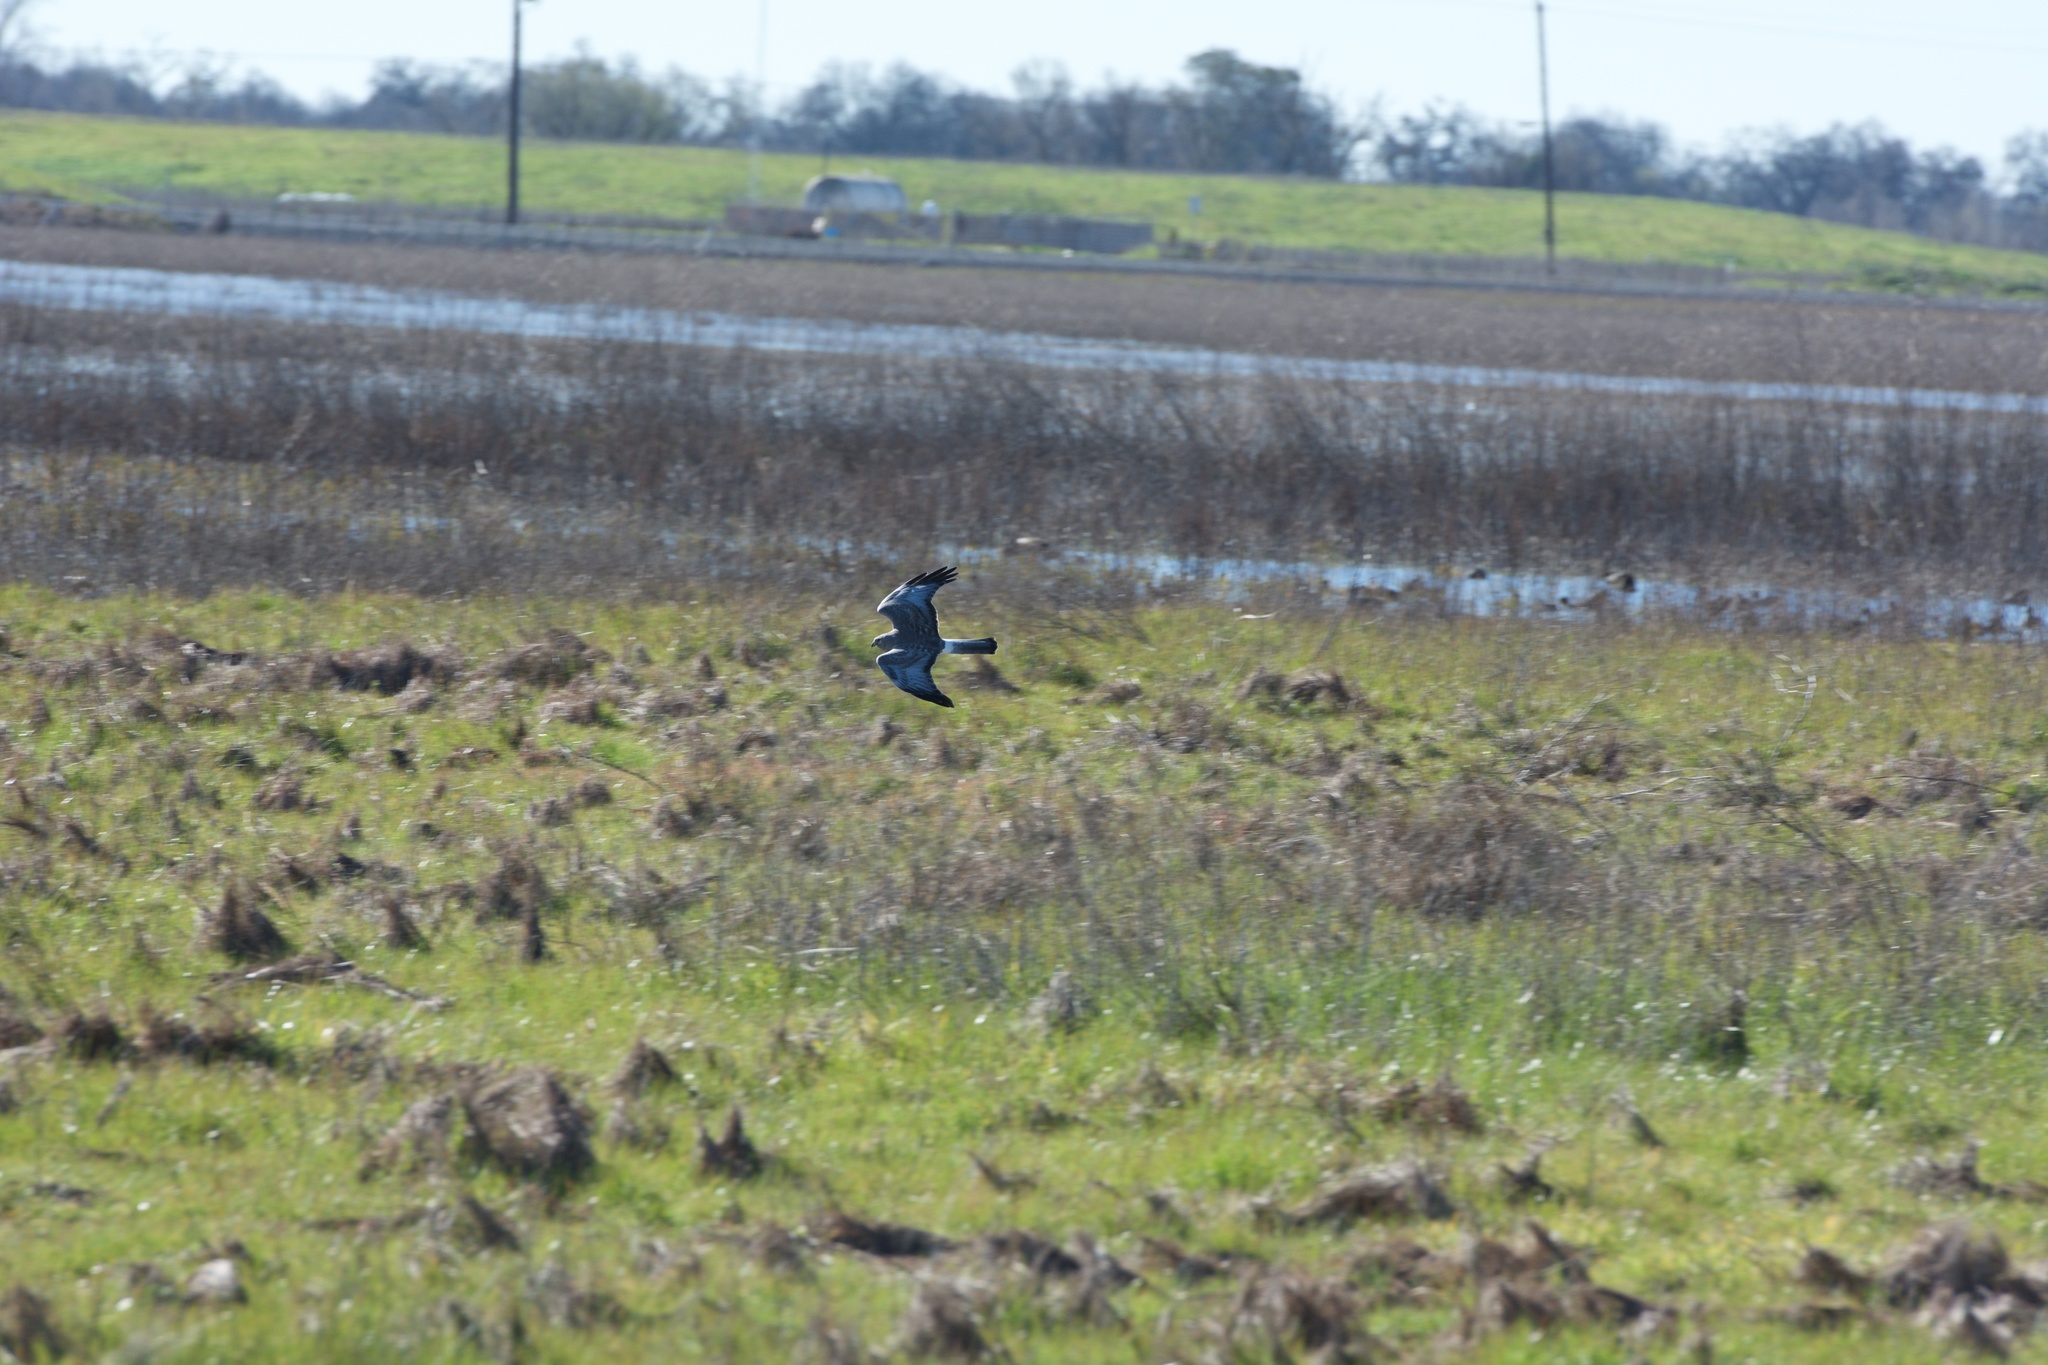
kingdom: Animalia
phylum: Chordata
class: Aves
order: Accipitriformes
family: Accipitridae
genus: Circus
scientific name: Circus cyaneus
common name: Hen harrier
